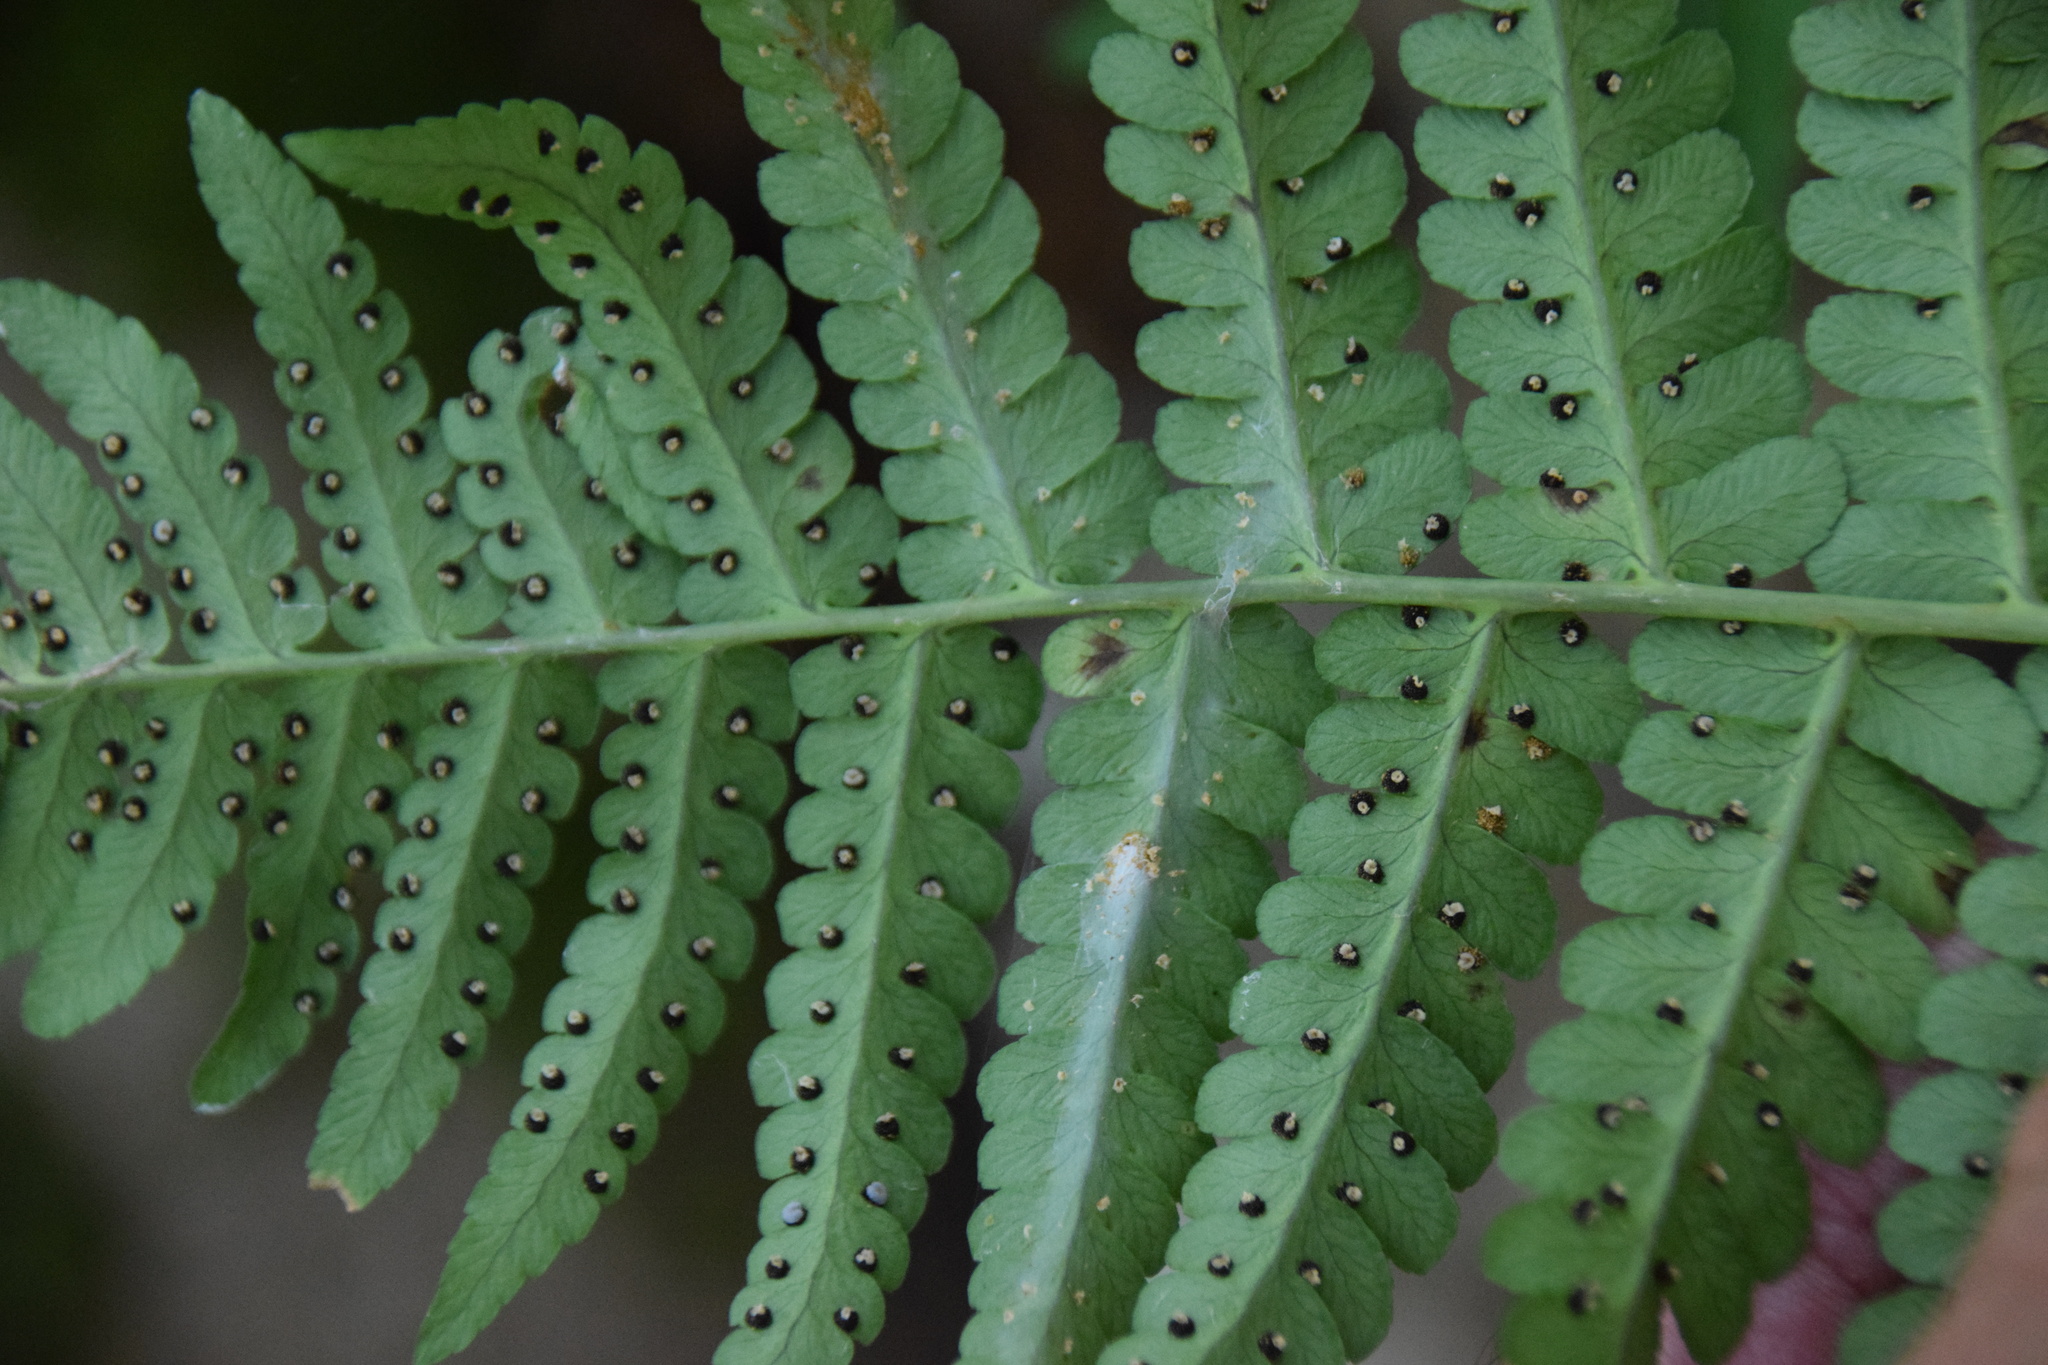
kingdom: Plantae
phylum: Tracheophyta
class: Polypodiopsida
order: Polypodiales
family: Dryopteridaceae
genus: Dryopteris
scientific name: Dryopteris marginalis
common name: Marginal wood fern
